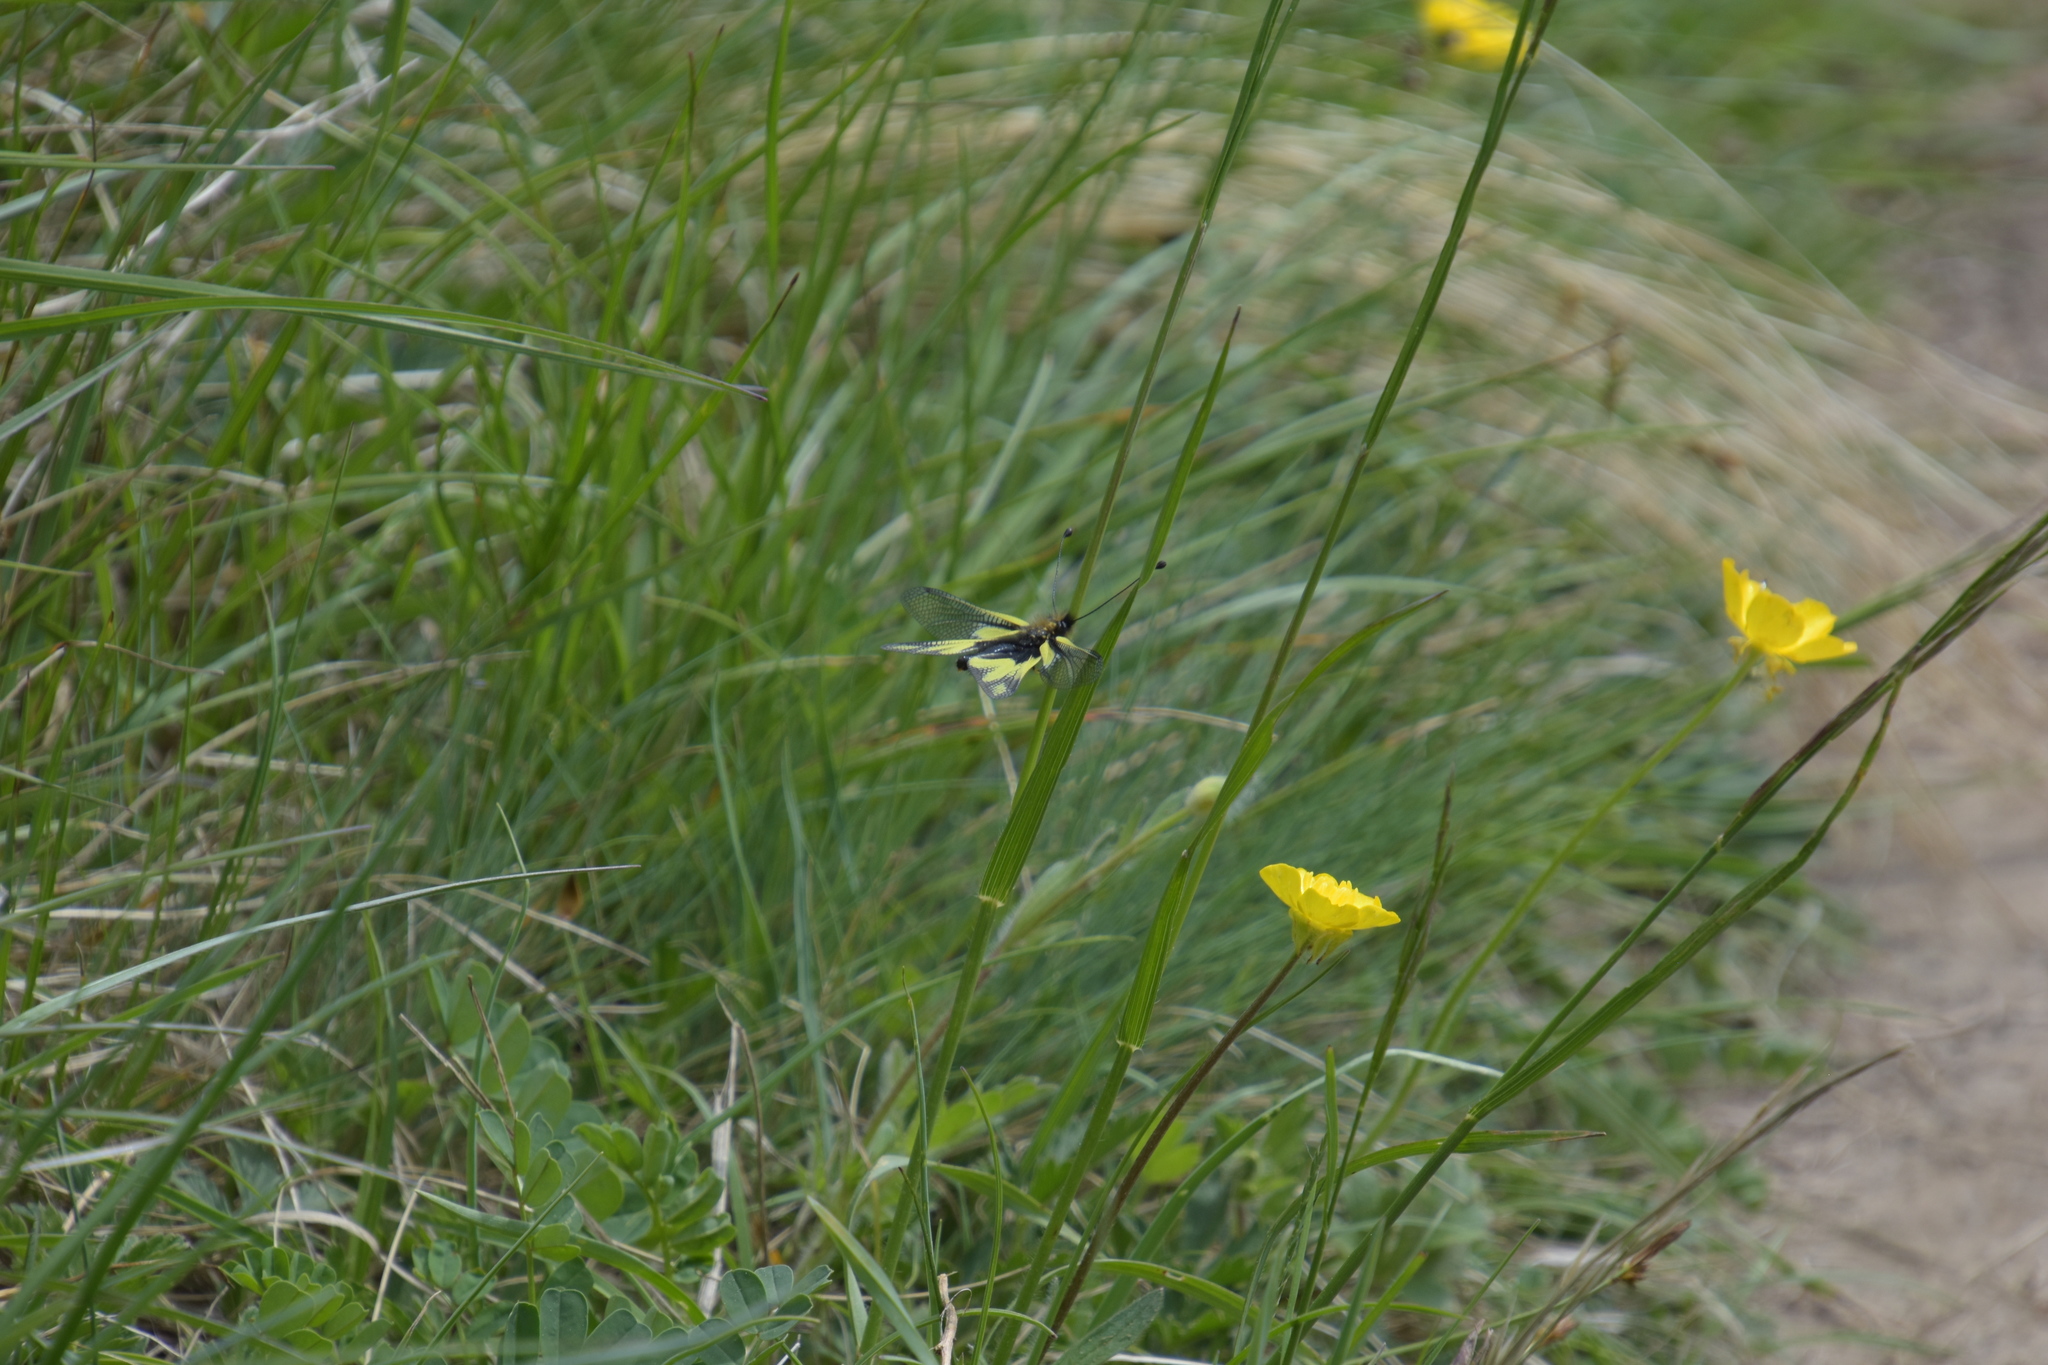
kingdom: Animalia
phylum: Arthropoda
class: Insecta
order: Neuroptera
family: Ascalaphidae
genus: Libelloides
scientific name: Libelloides coccajus
